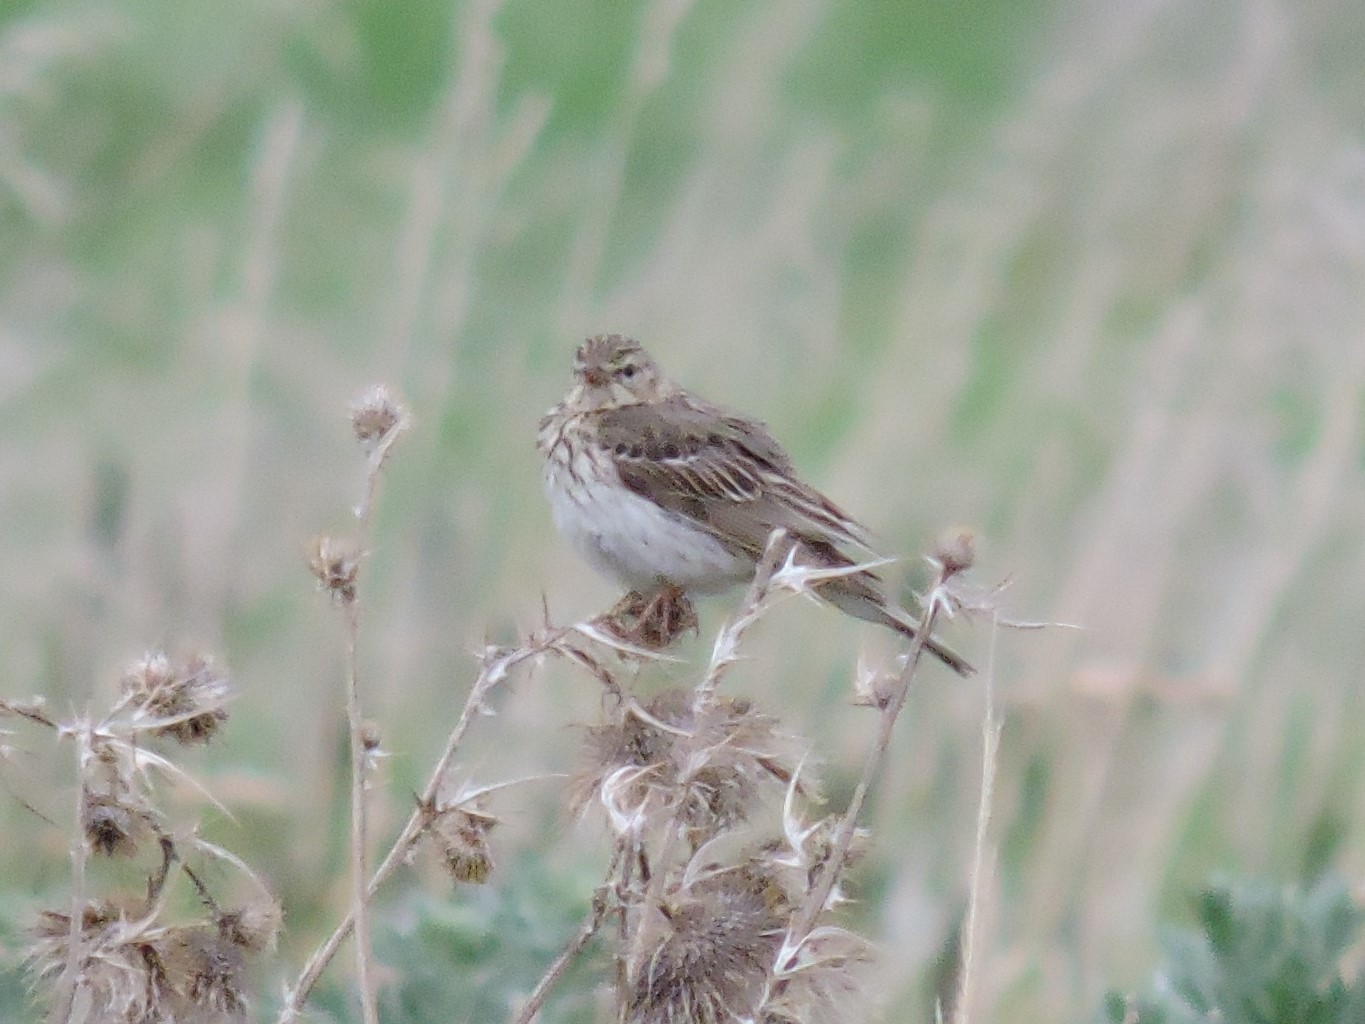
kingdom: Animalia
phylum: Chordata
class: Aves
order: Passeriformes
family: Motacillidae
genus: Anthus
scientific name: Anthus trivialis
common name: Tree pipit
